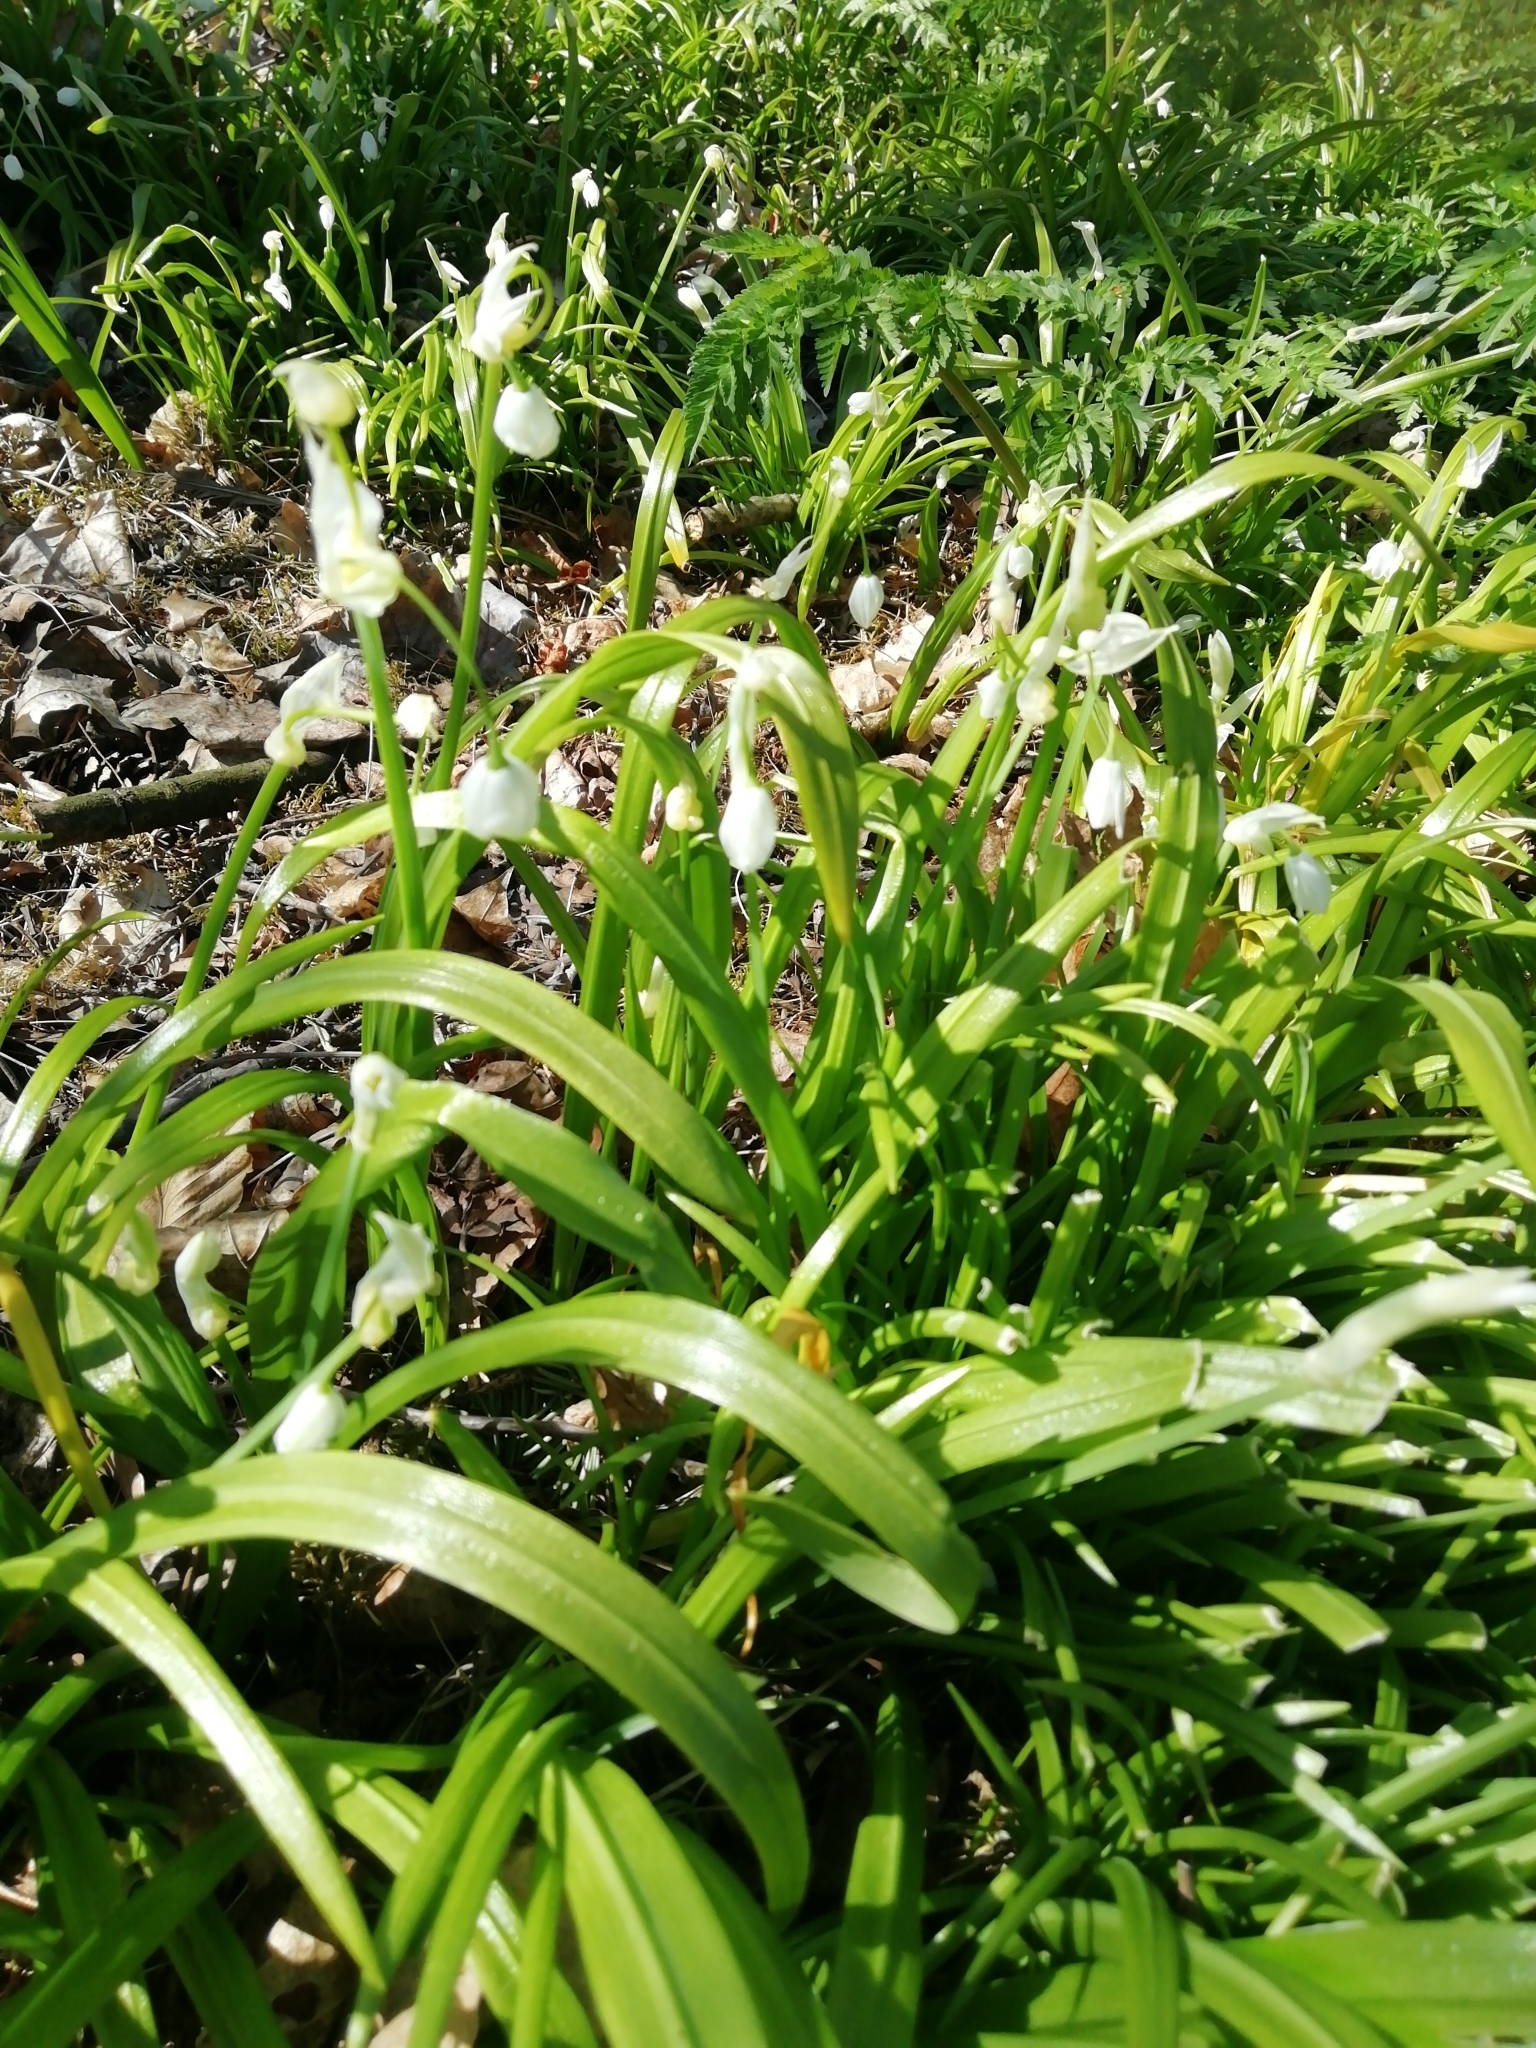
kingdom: Plantae
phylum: Tracheophyta
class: Liliopsida
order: Asparagales
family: Amaryllidaceae
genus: Allium
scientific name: Allium paradoxum
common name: Few-flowered garlic
